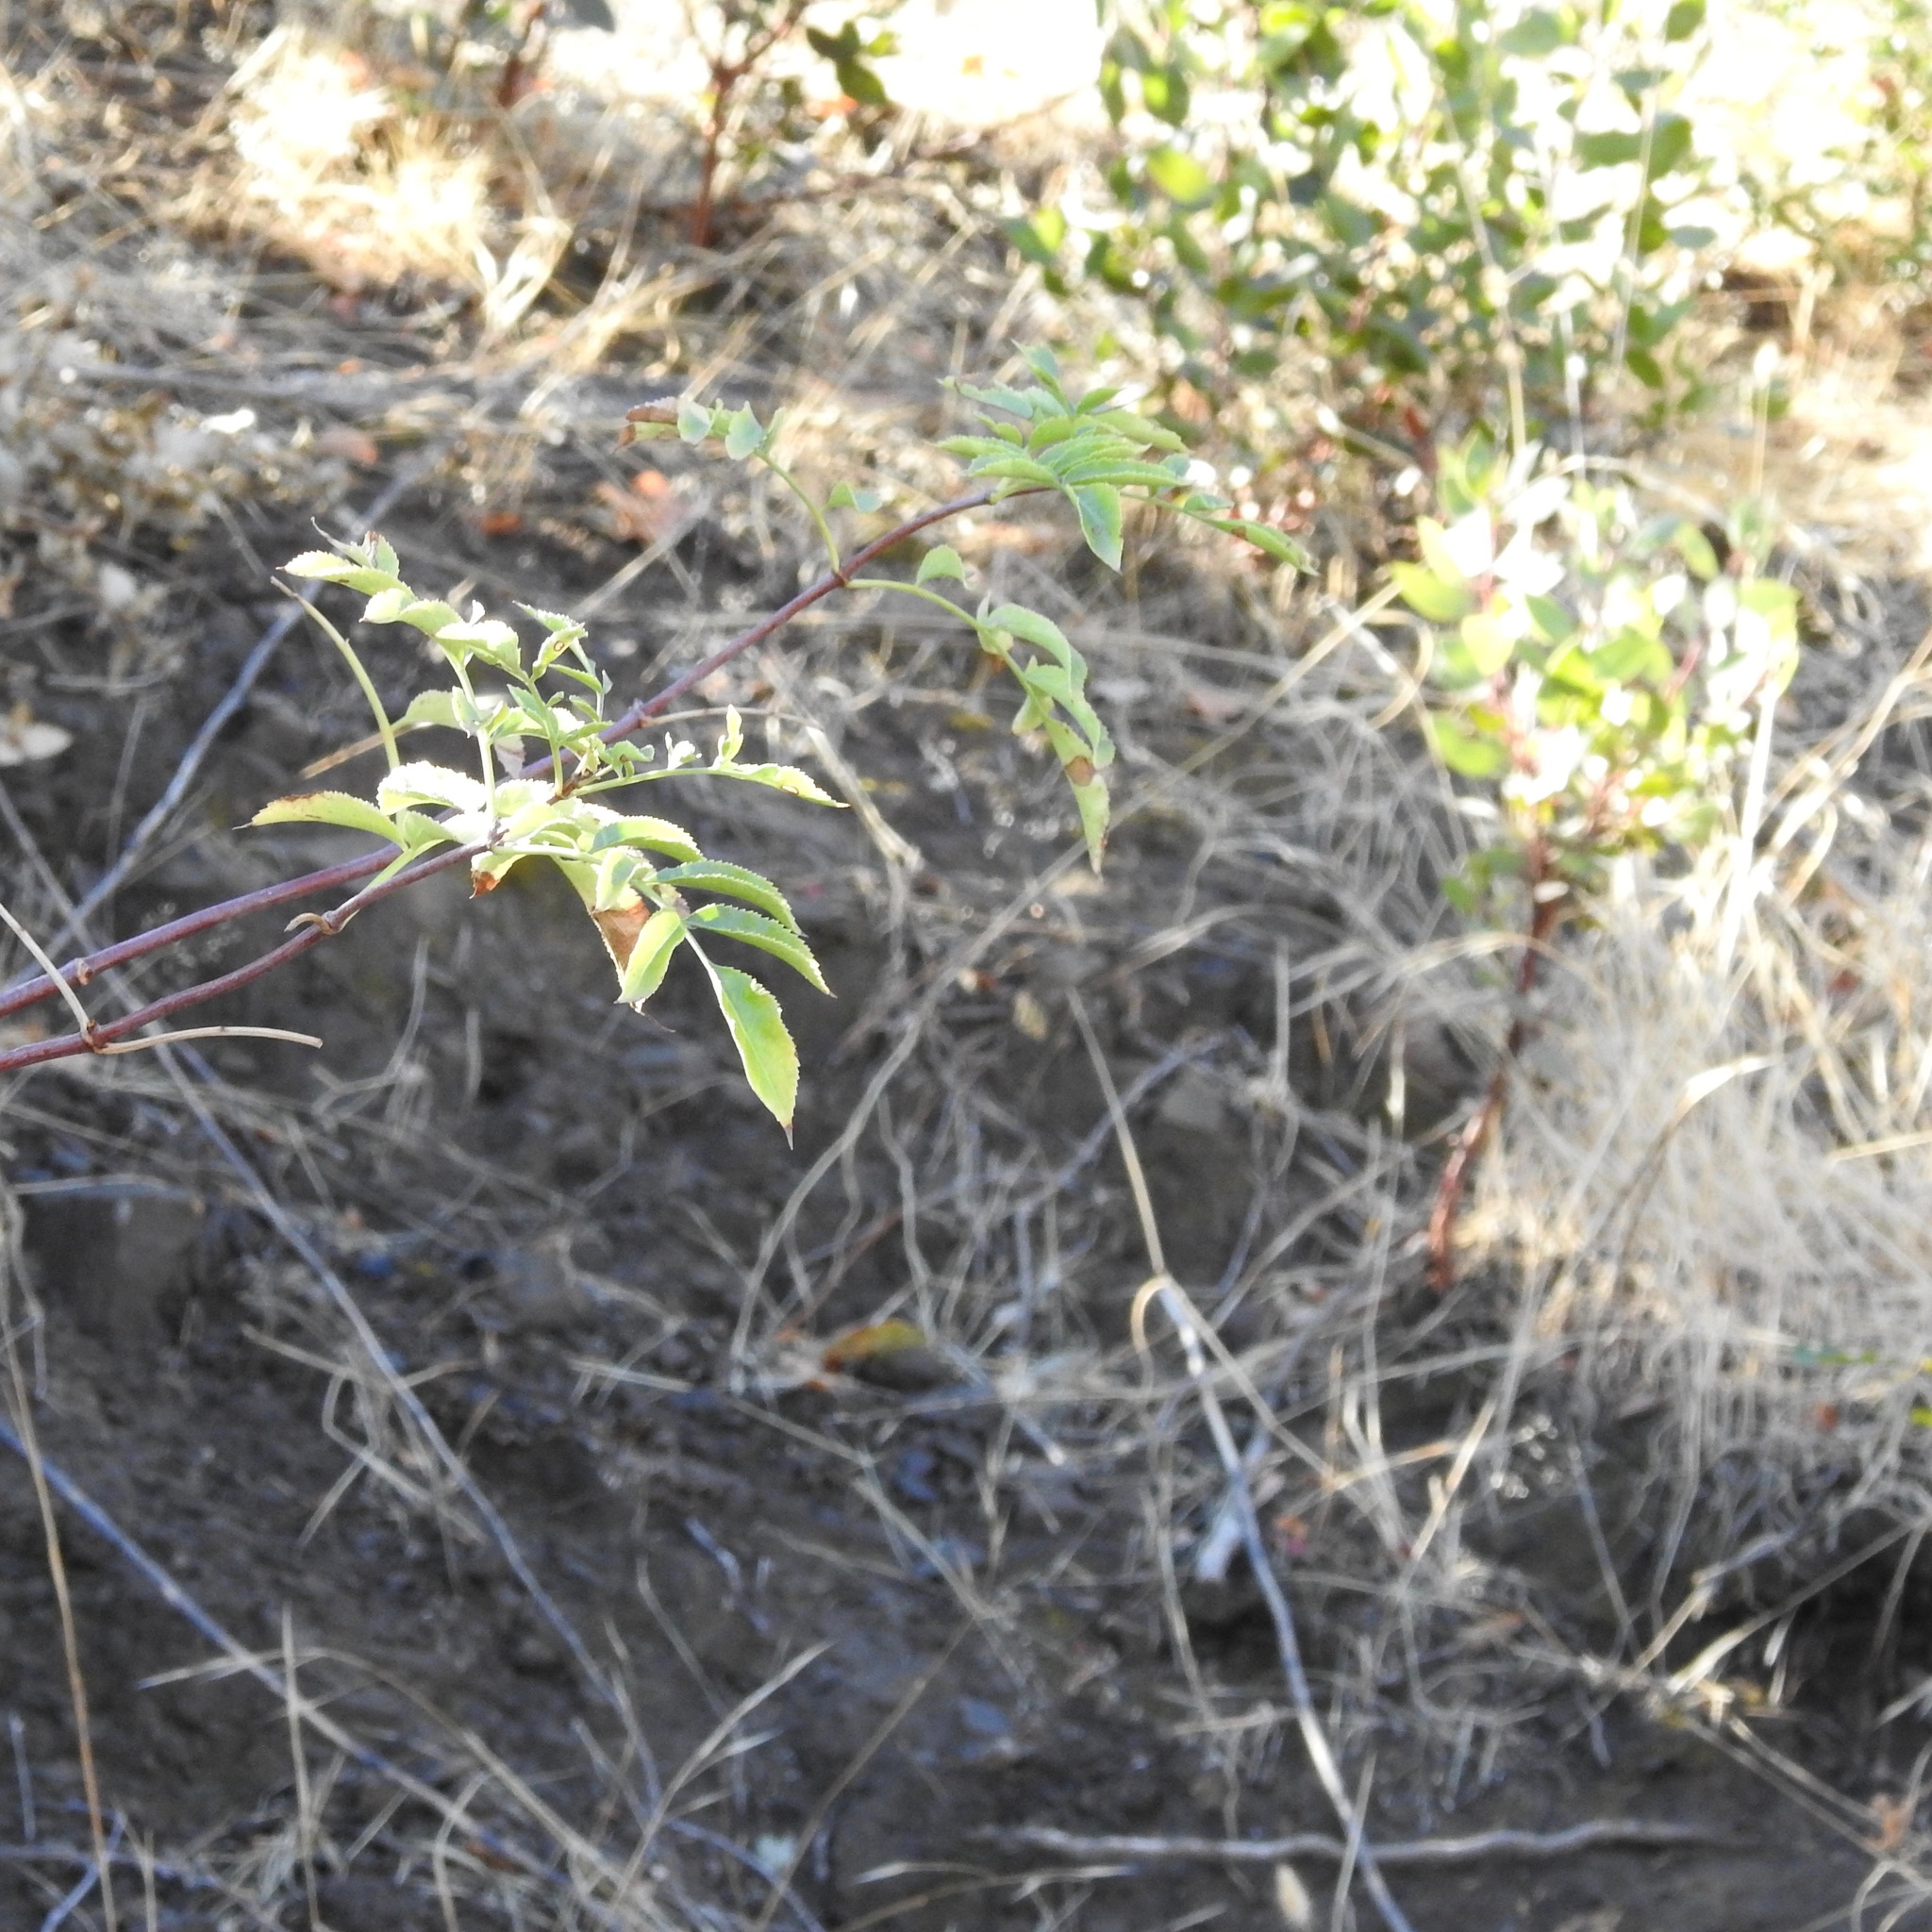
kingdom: Plantae
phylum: Tracheophyta
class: Magnoliopsida
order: Dipsacales
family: Viburnaceae
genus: Sambucus
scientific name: Sambucus cerulea
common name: Blue elder
